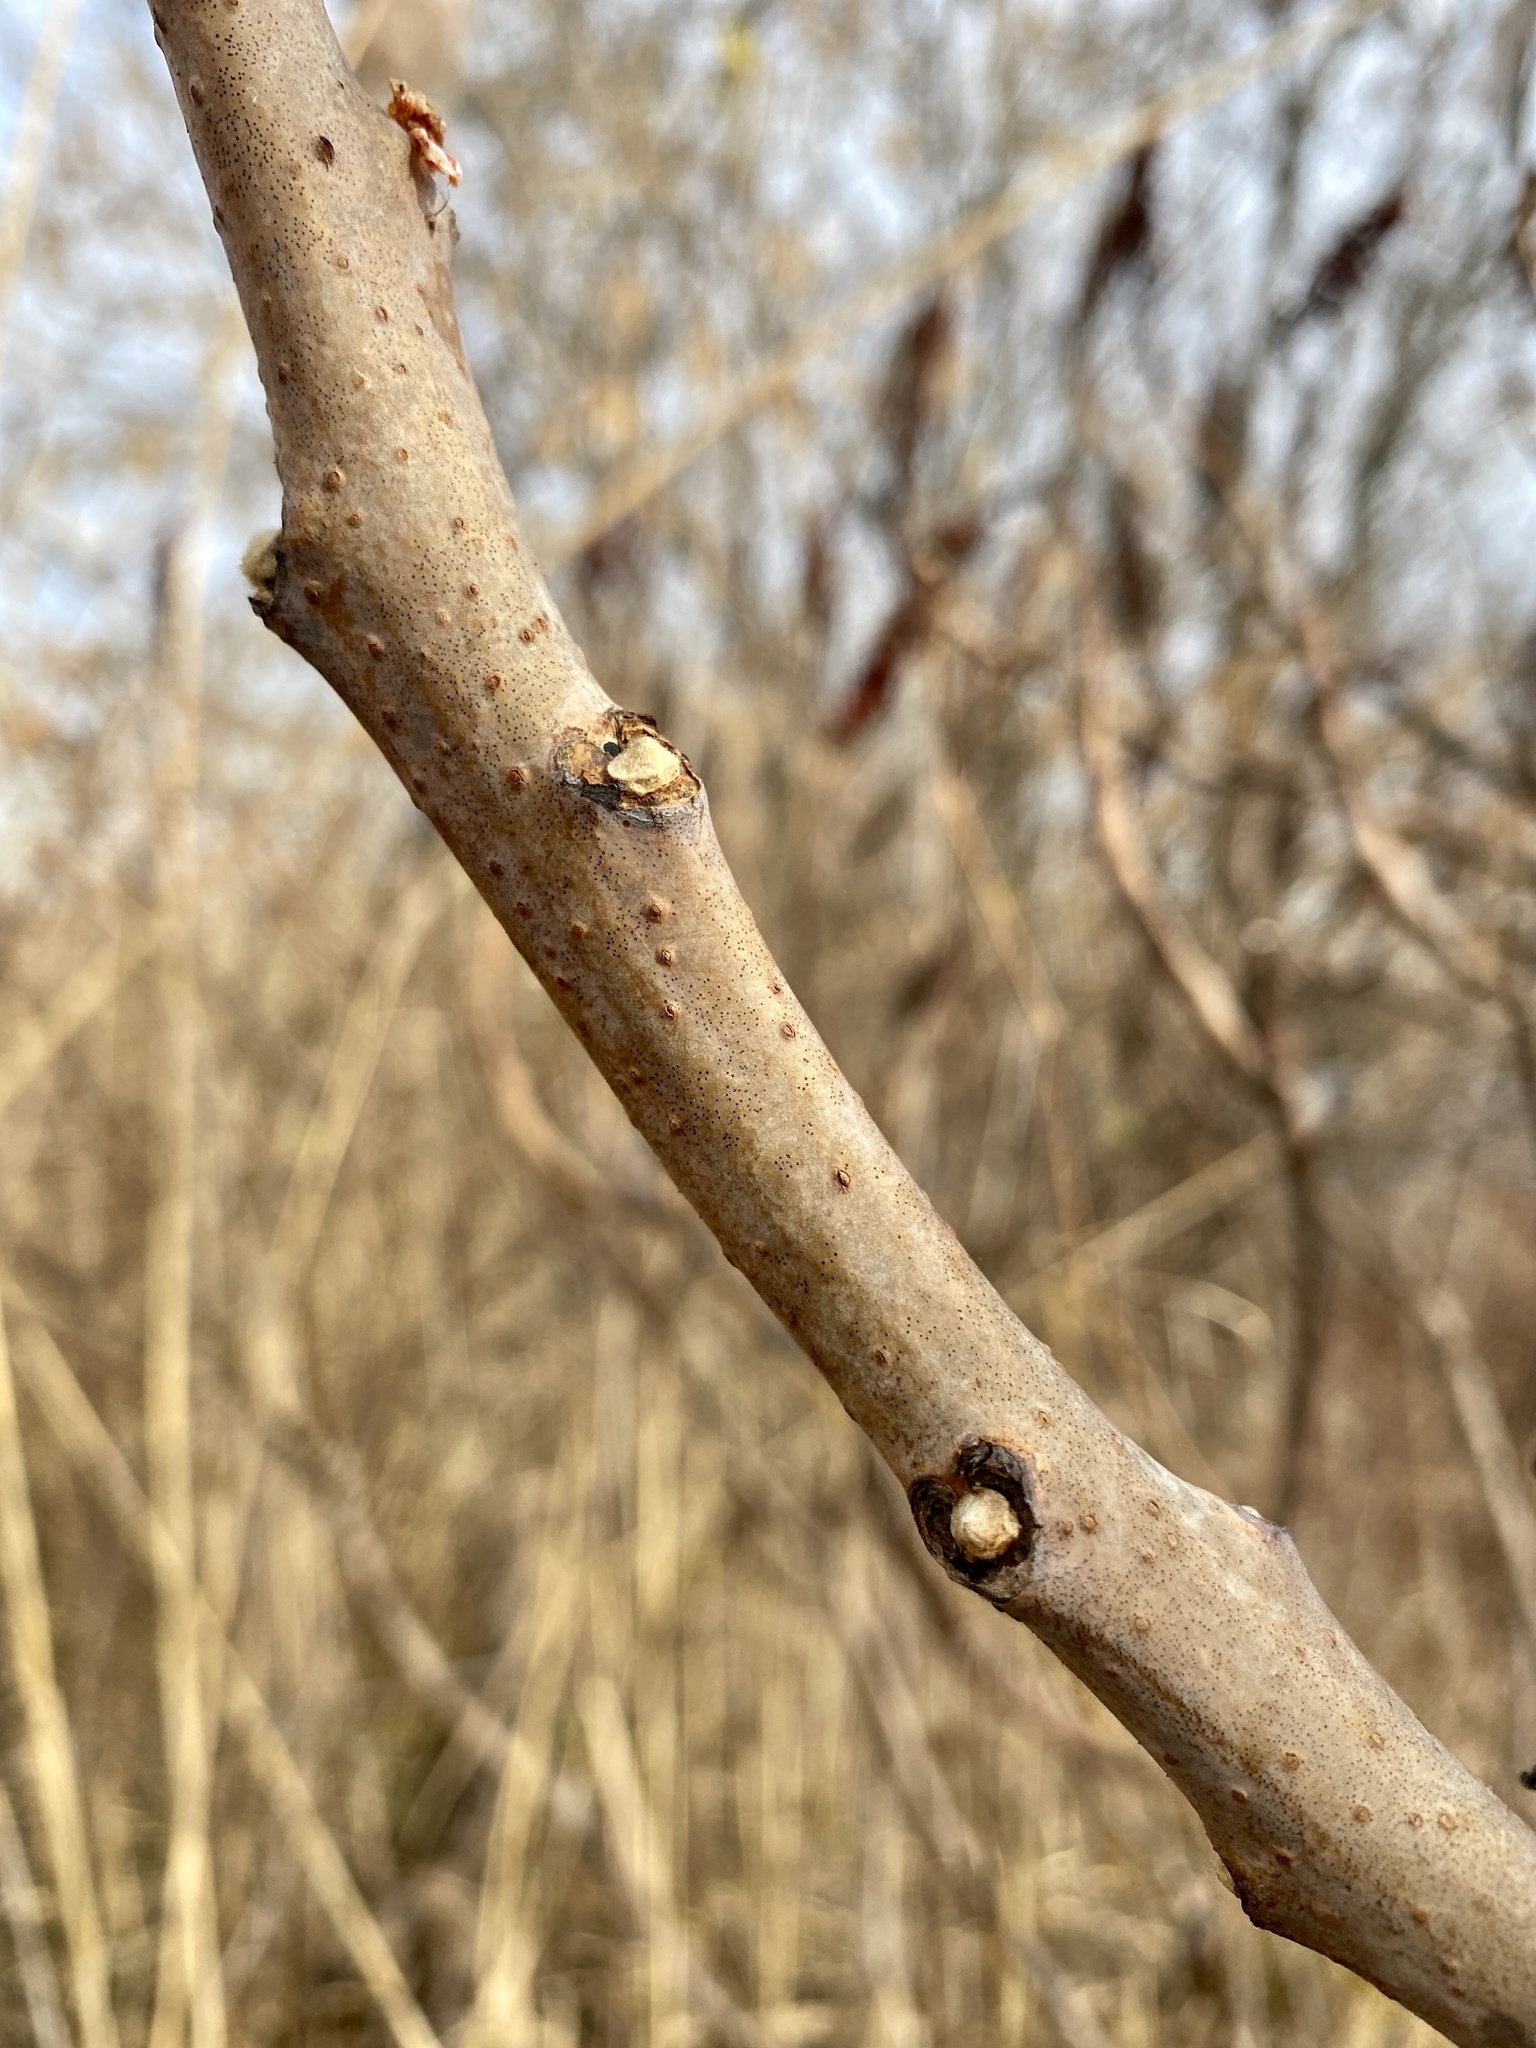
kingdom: Plantae
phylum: Tracheophyta
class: Magnoliopsida
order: Sapindales
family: Anacardiaceae
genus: Rhus
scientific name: Rhus glabra
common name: Scarlet sumac
